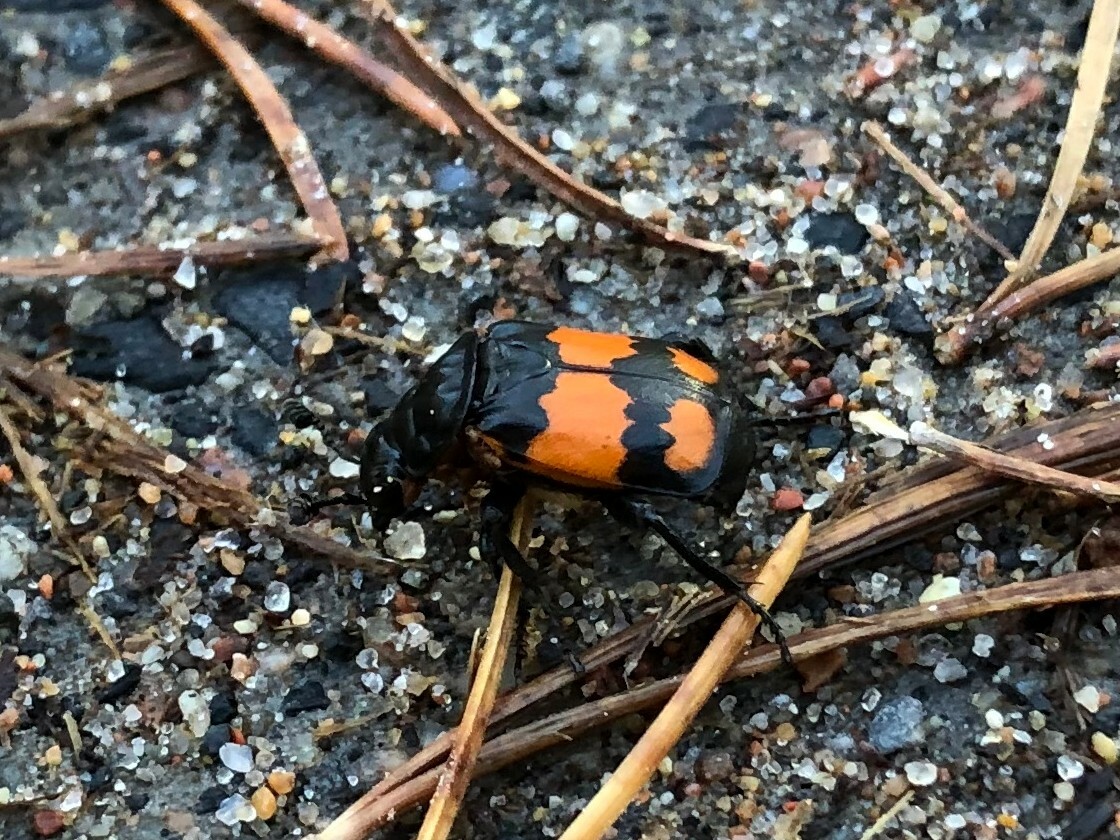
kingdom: Animalia
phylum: Arthropoda
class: Insecta
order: Coleoptera
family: Staphylinidae
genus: Nicrophorus
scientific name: Nicrophorus vespilloides
